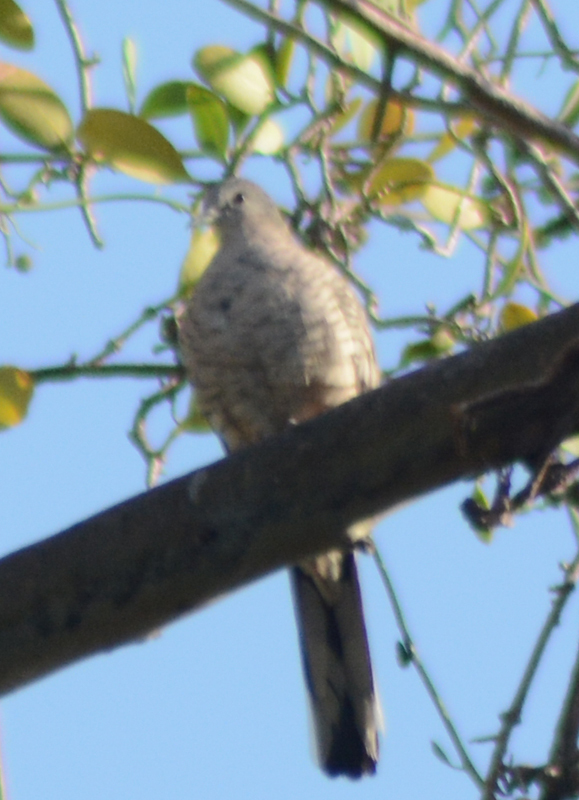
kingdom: Animalia
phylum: Chordata
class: Aves
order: Columbiformes
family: Columbidae
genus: Columbina
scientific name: Columbina inca
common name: Inca dove
